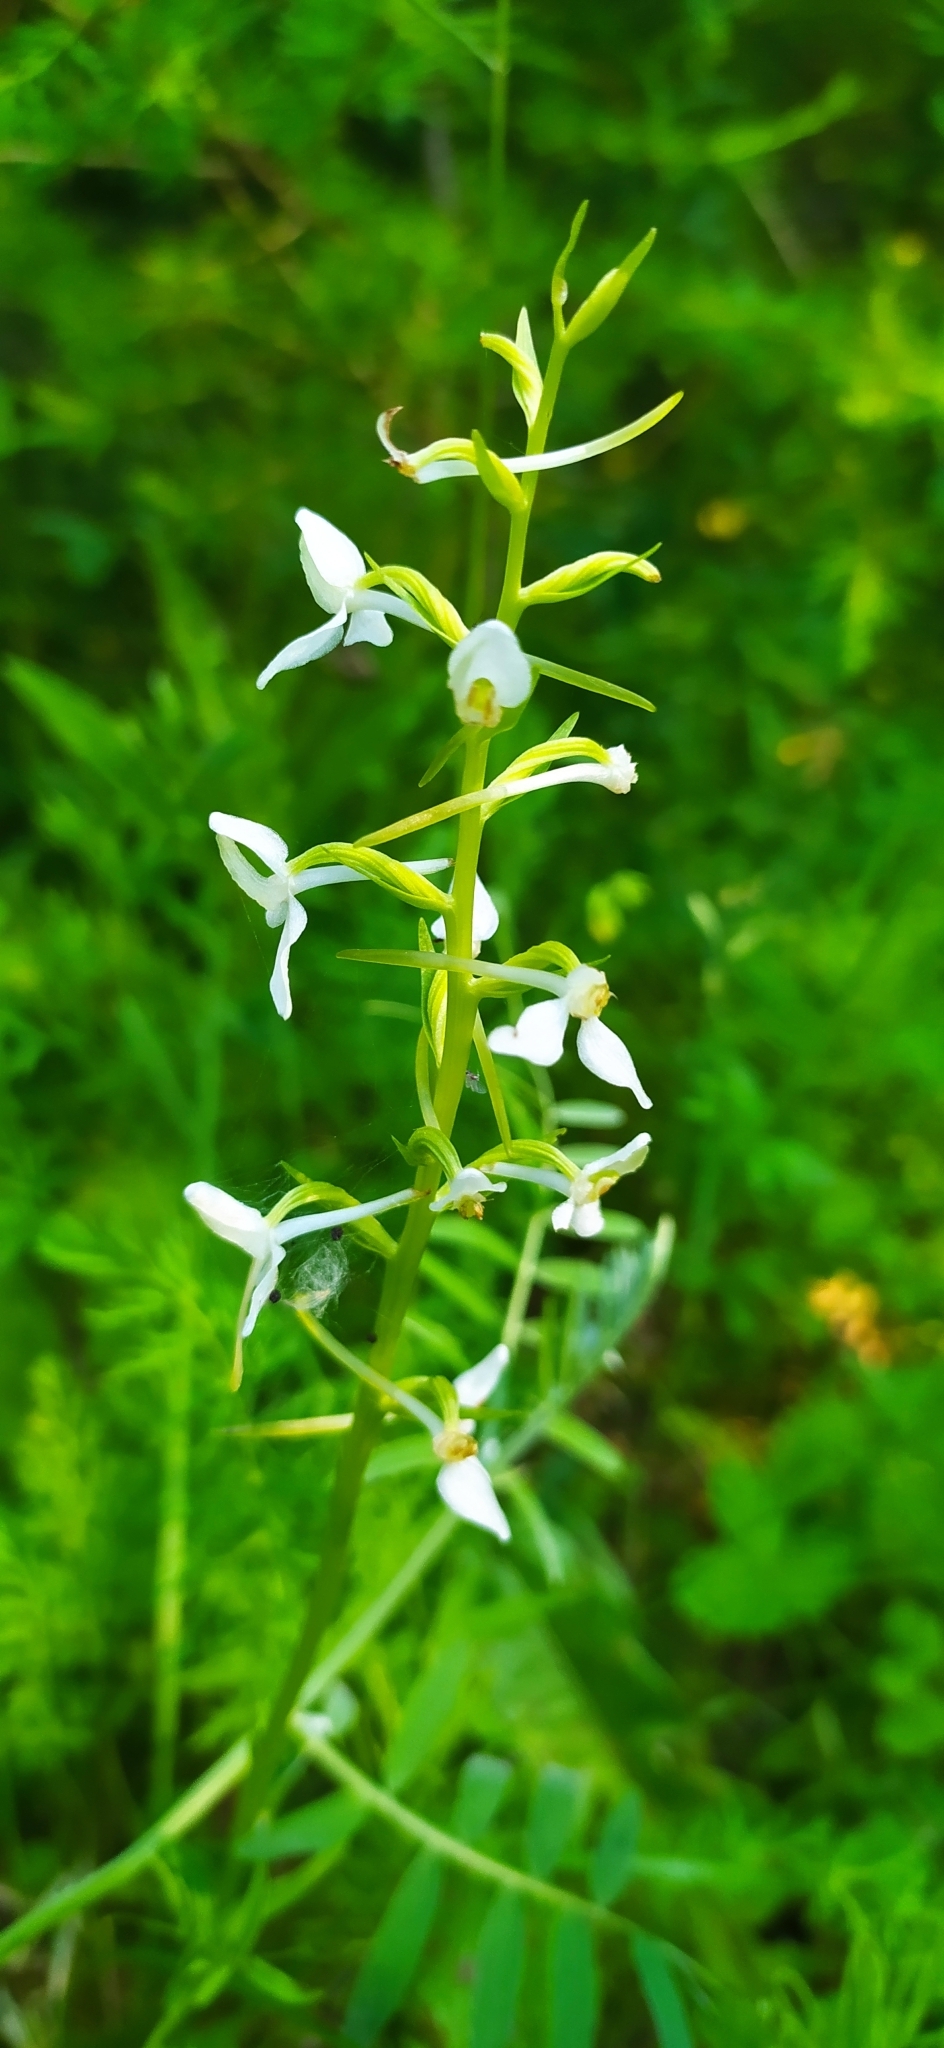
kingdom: Plantae
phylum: Tracheophyta
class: Liliopsida
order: Asparagales
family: Orchidaceae
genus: Platanthera
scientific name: Platanthera bifolia
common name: Lesser butterfly-orchid
